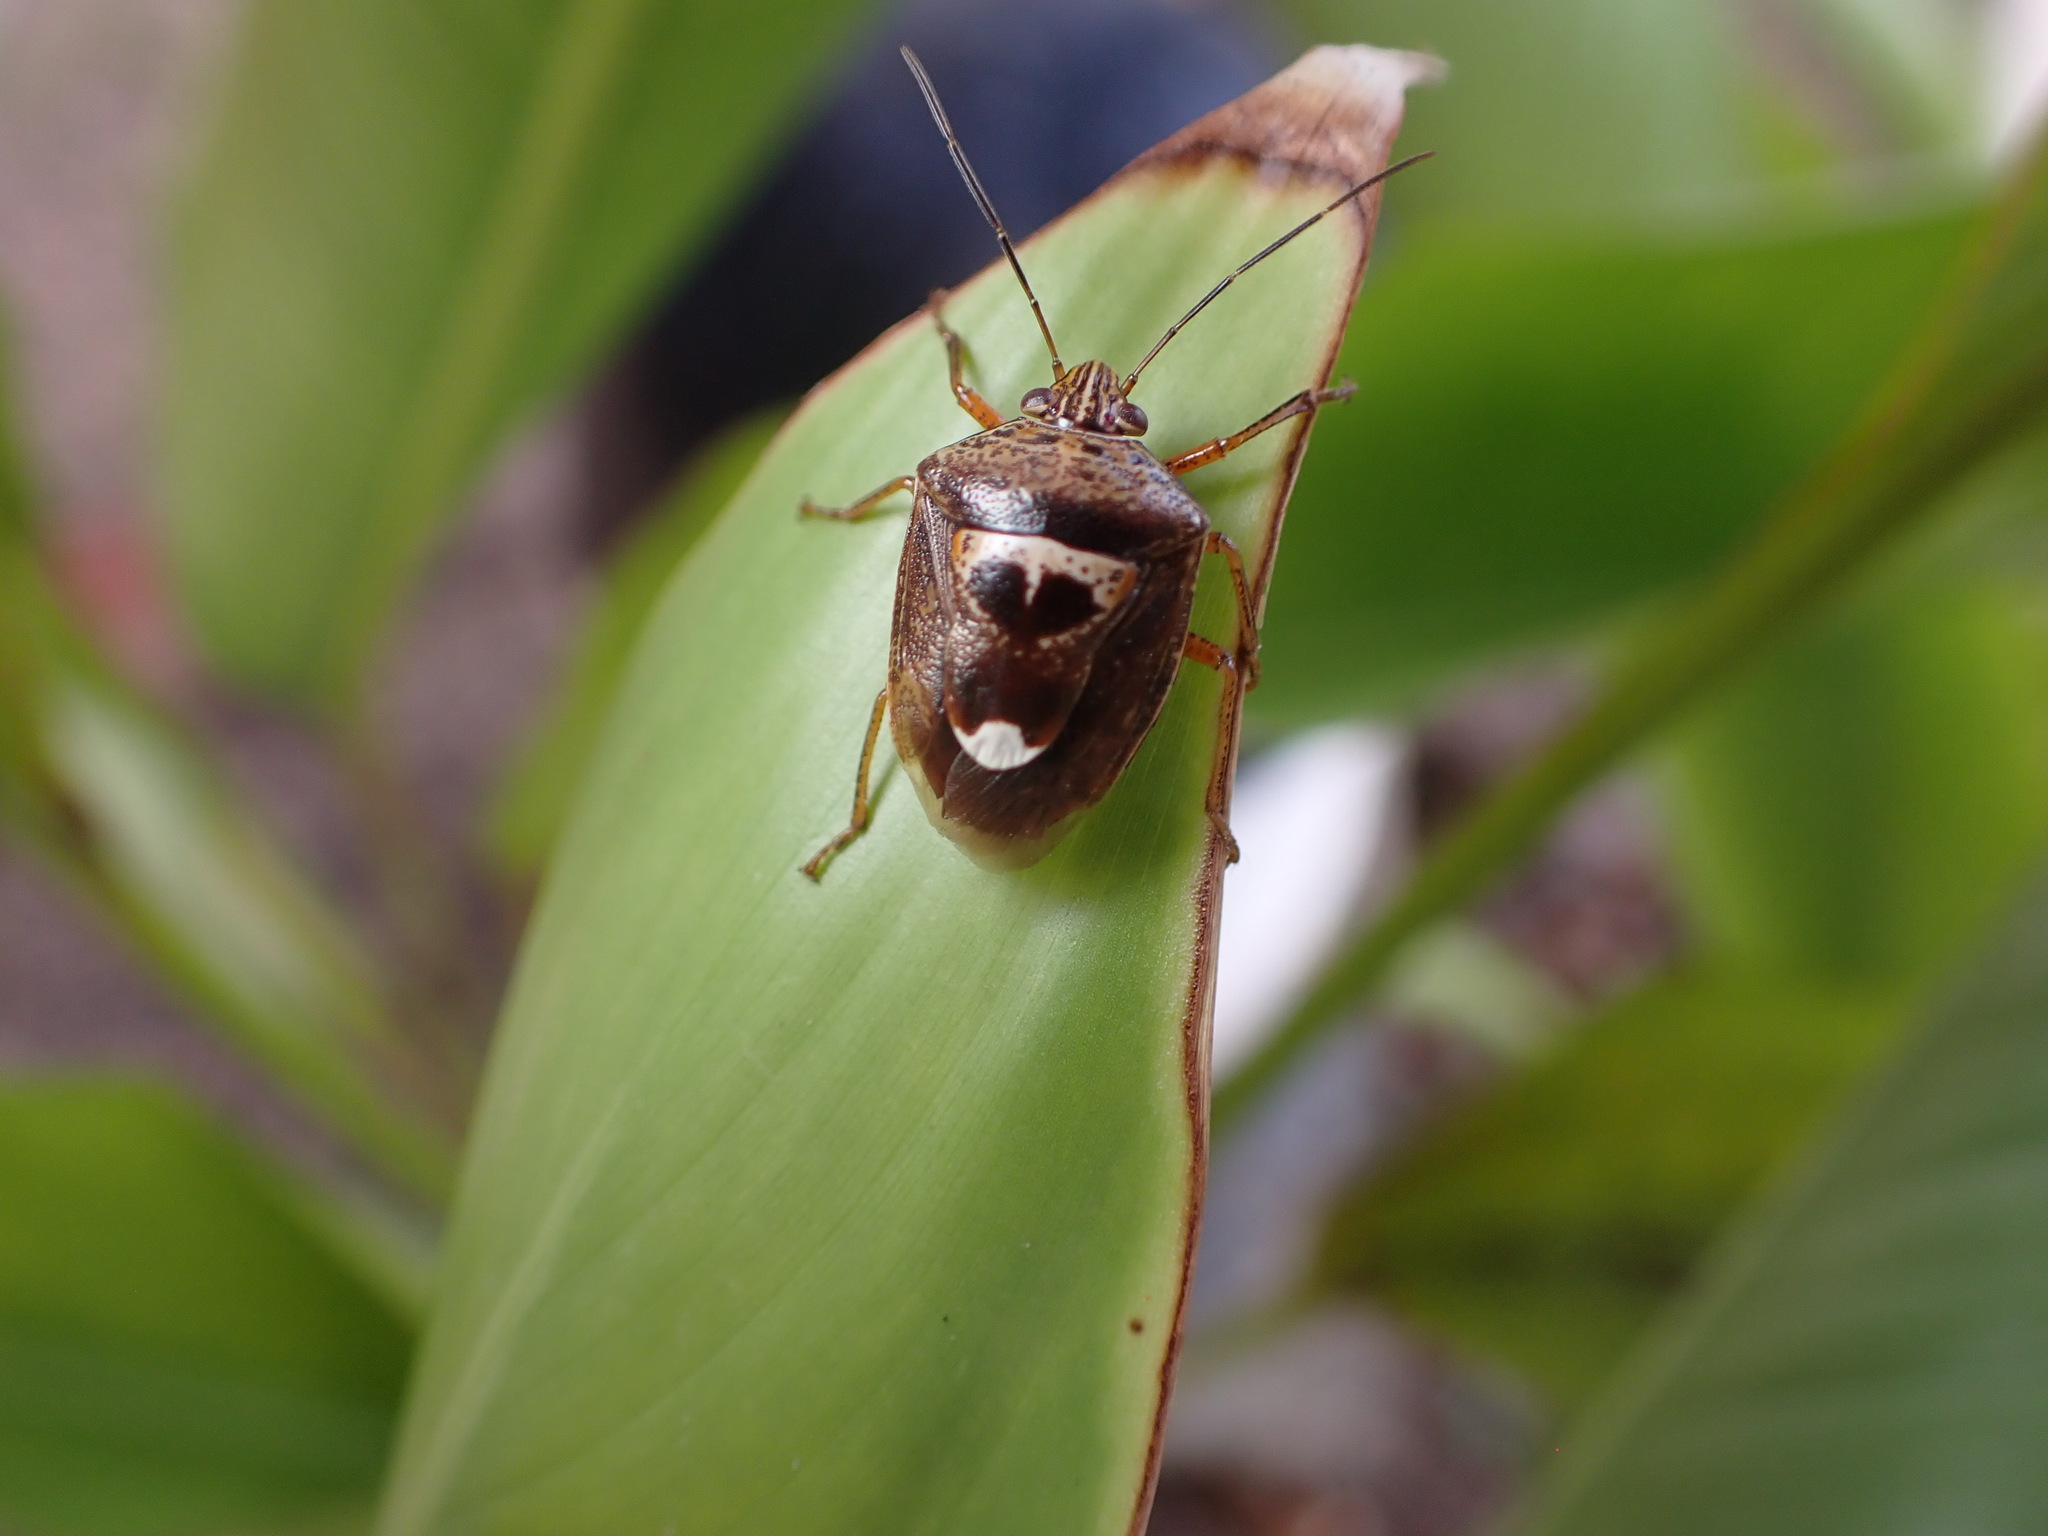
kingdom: Animalia
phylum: Arthropoda
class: Insecta
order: Hemiptera
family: Pentatomidae
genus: Axiagastus
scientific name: Axiagastus rosmarus
